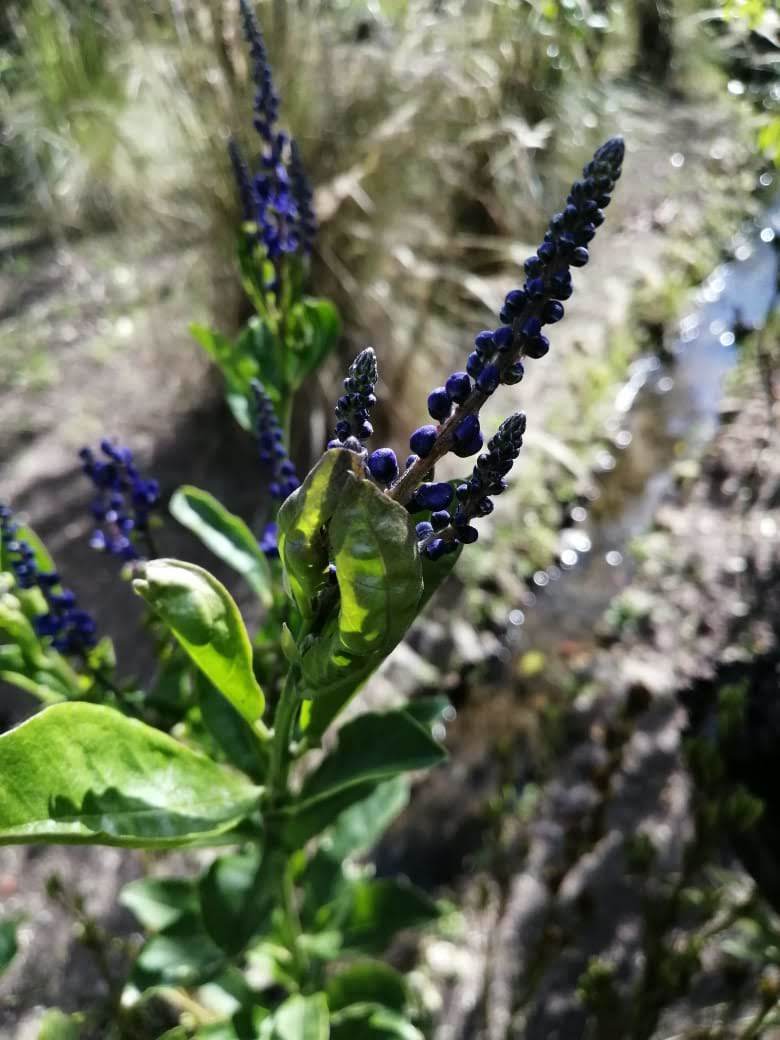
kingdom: Plantae
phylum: Tracheophyta
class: Magnoliopsida
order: Fabales
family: Polygalaceae
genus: Monnina
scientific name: Monnina aestuans
